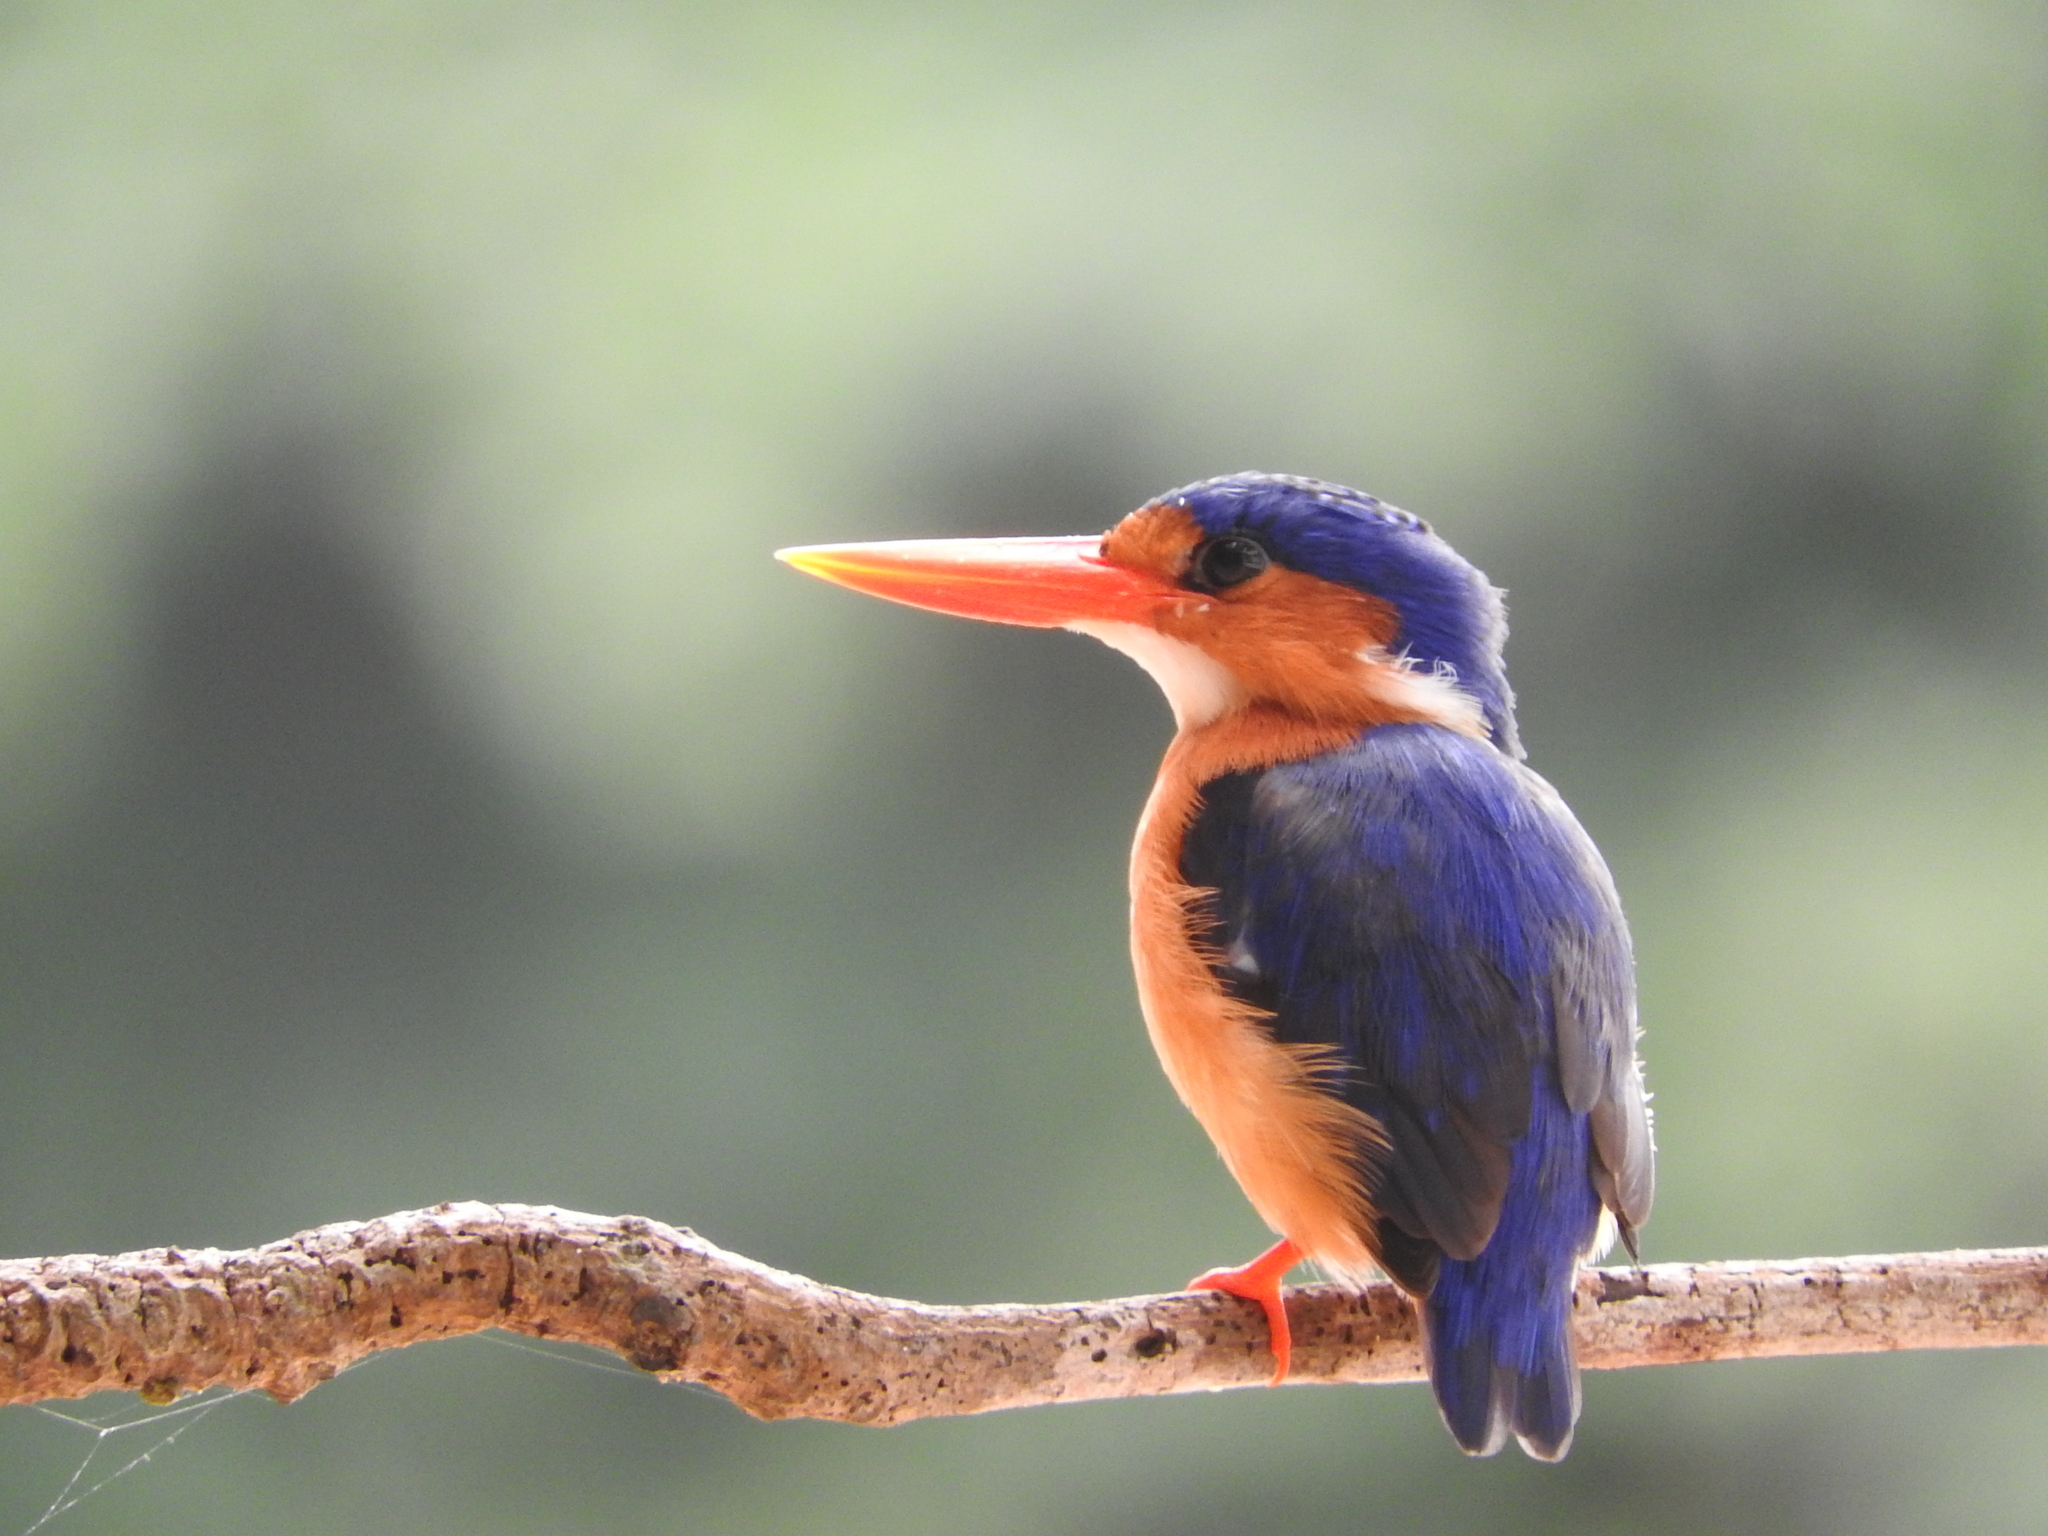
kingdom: Animalia
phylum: Chordata
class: Aves
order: Coraciiformes
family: Alcedinidae
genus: Corythornis
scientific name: Corythornis cristatus
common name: Malachite kingfisher
